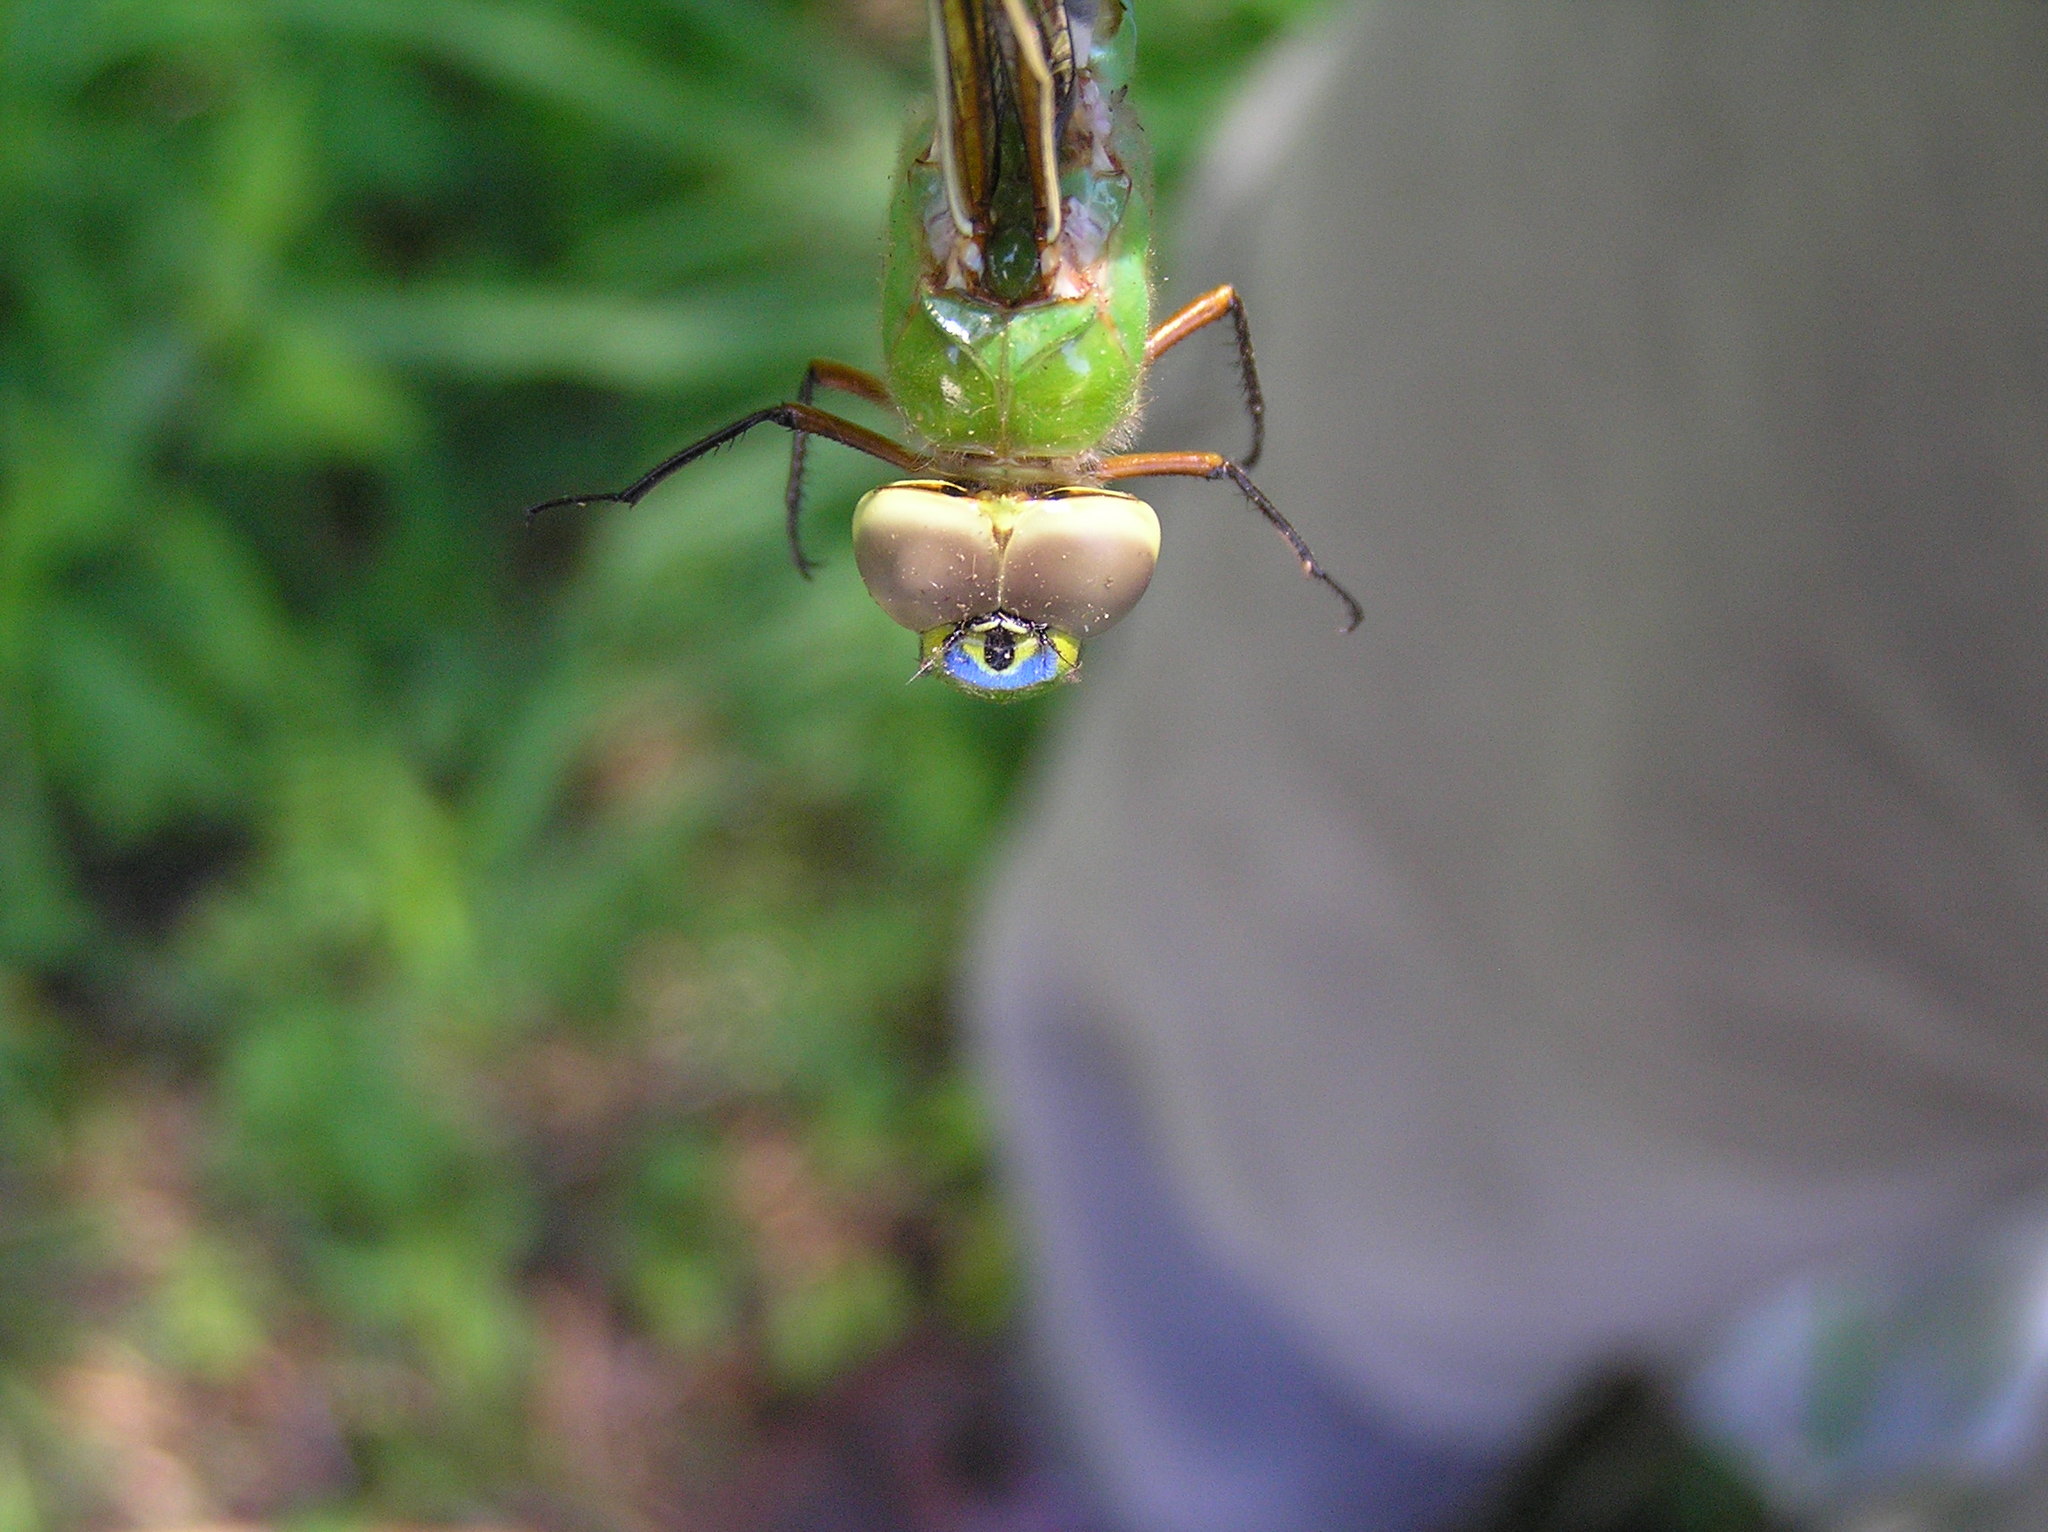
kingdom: Animalia
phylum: Arthropoda
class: Insecta
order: Odonata
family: Aeshnidae
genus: Anax
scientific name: Anax junius
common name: Common green darner
